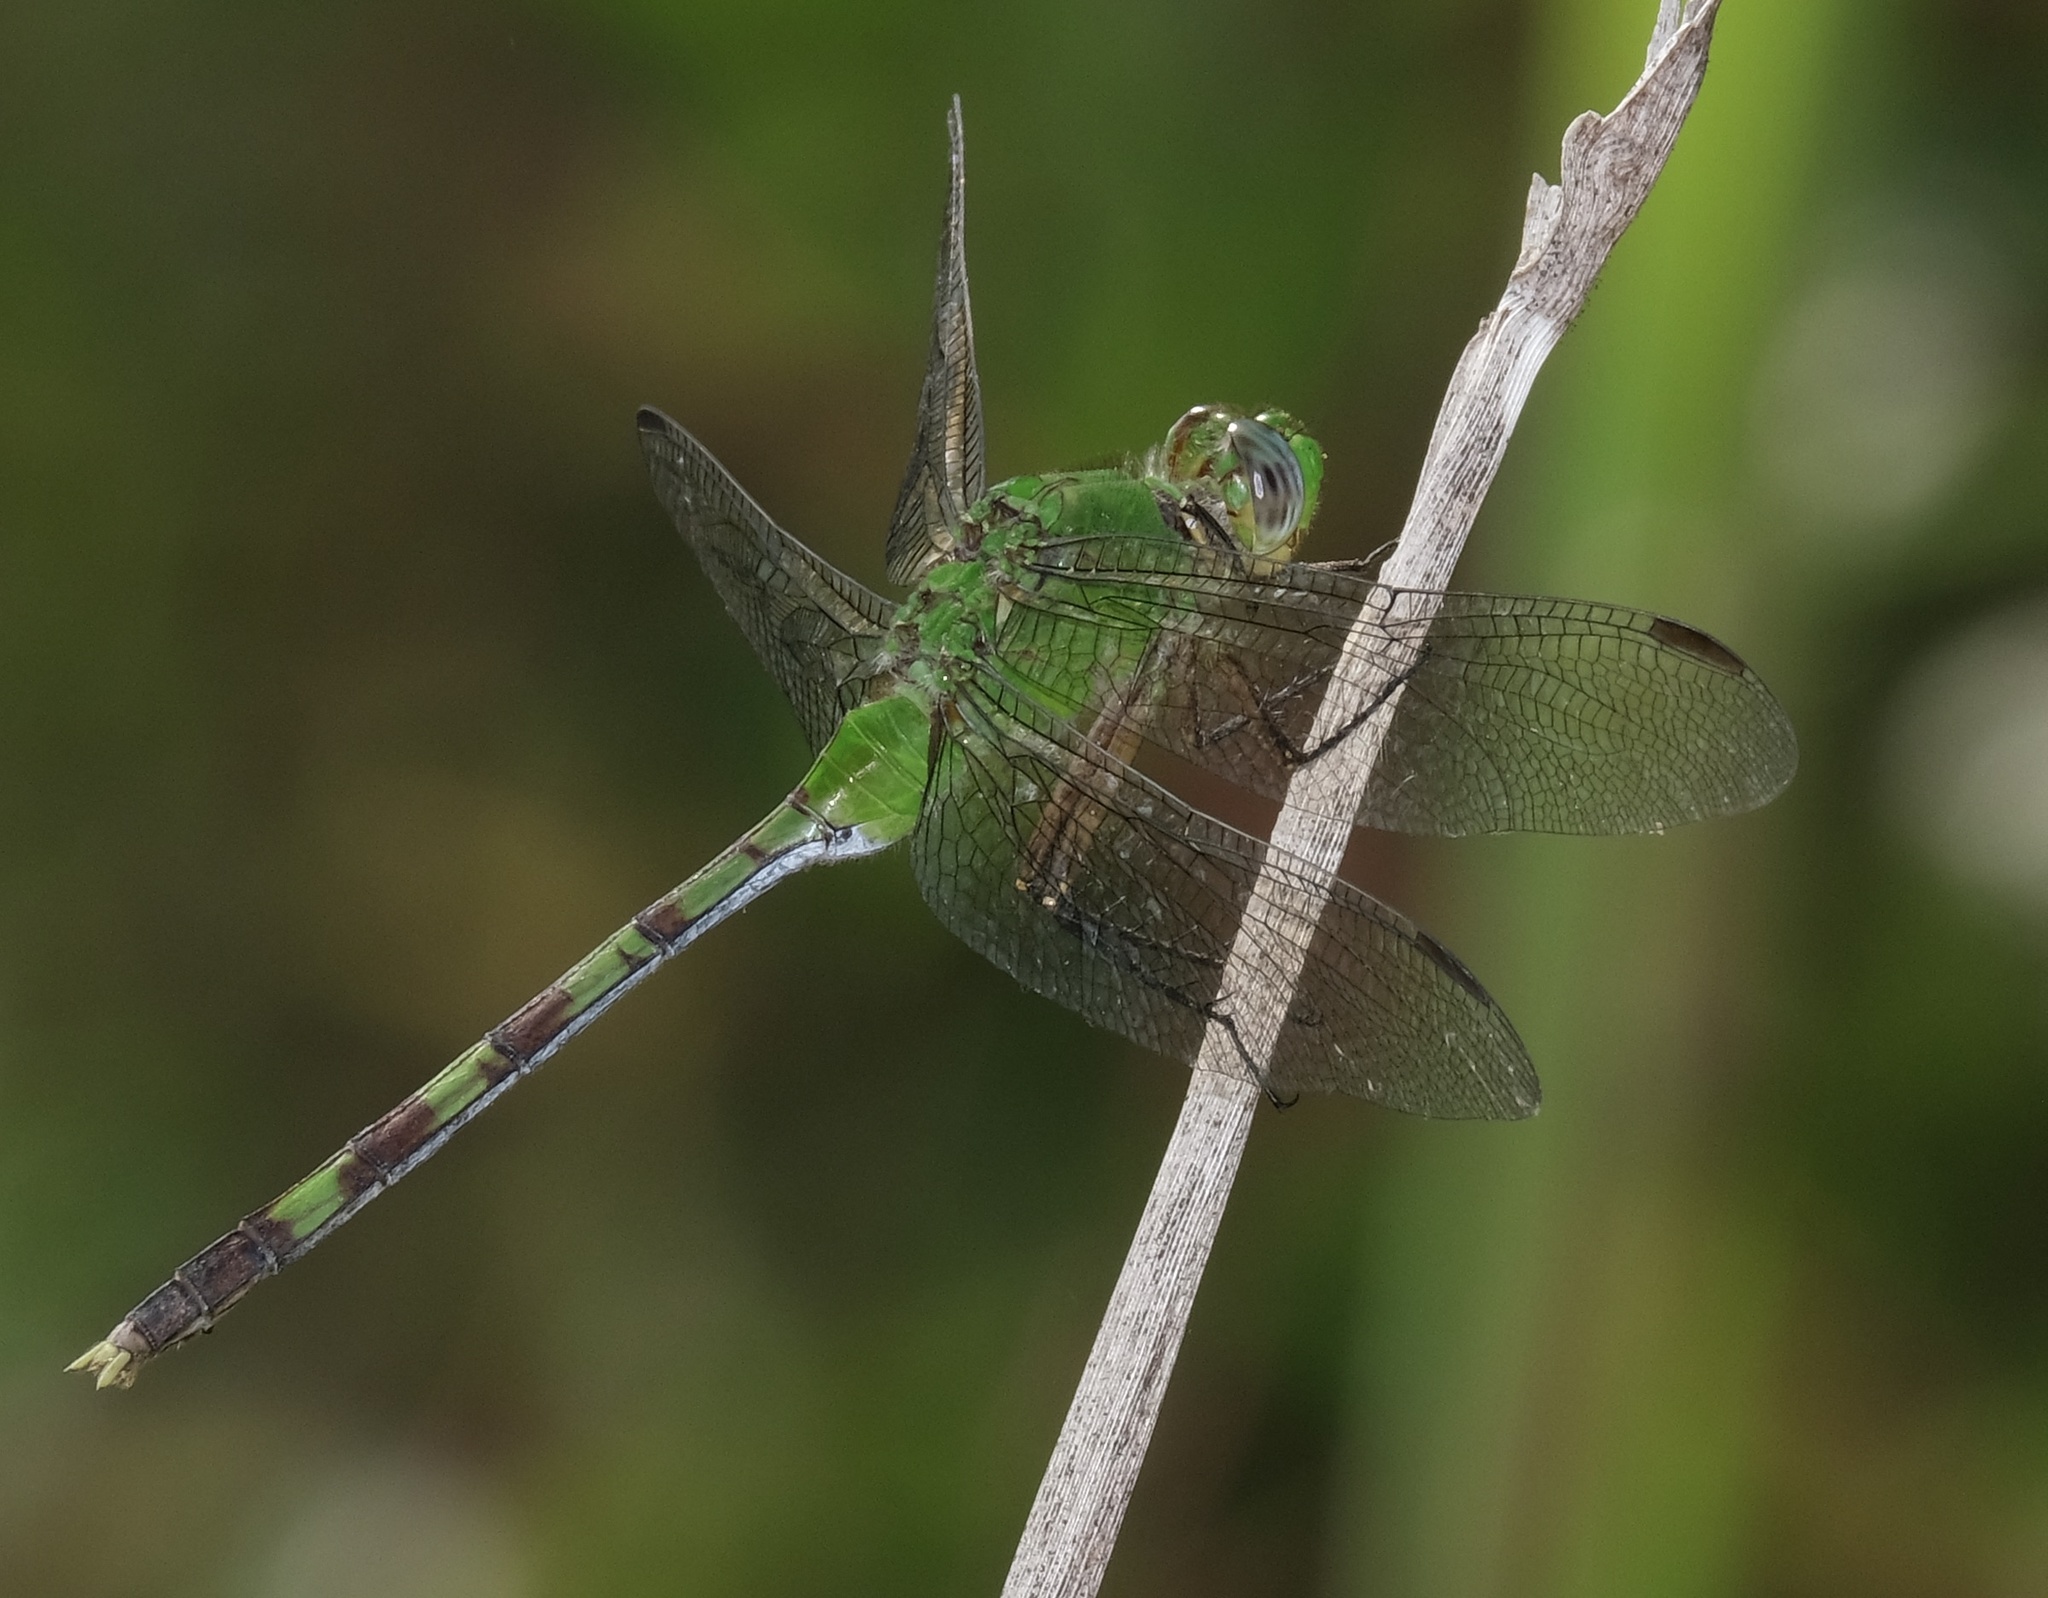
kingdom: Animalia
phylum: Arthropoda
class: Insecta
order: Odonata
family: Libellulidae
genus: Erythemis
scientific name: Erythemis vesiculosa
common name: Great pondhawk
